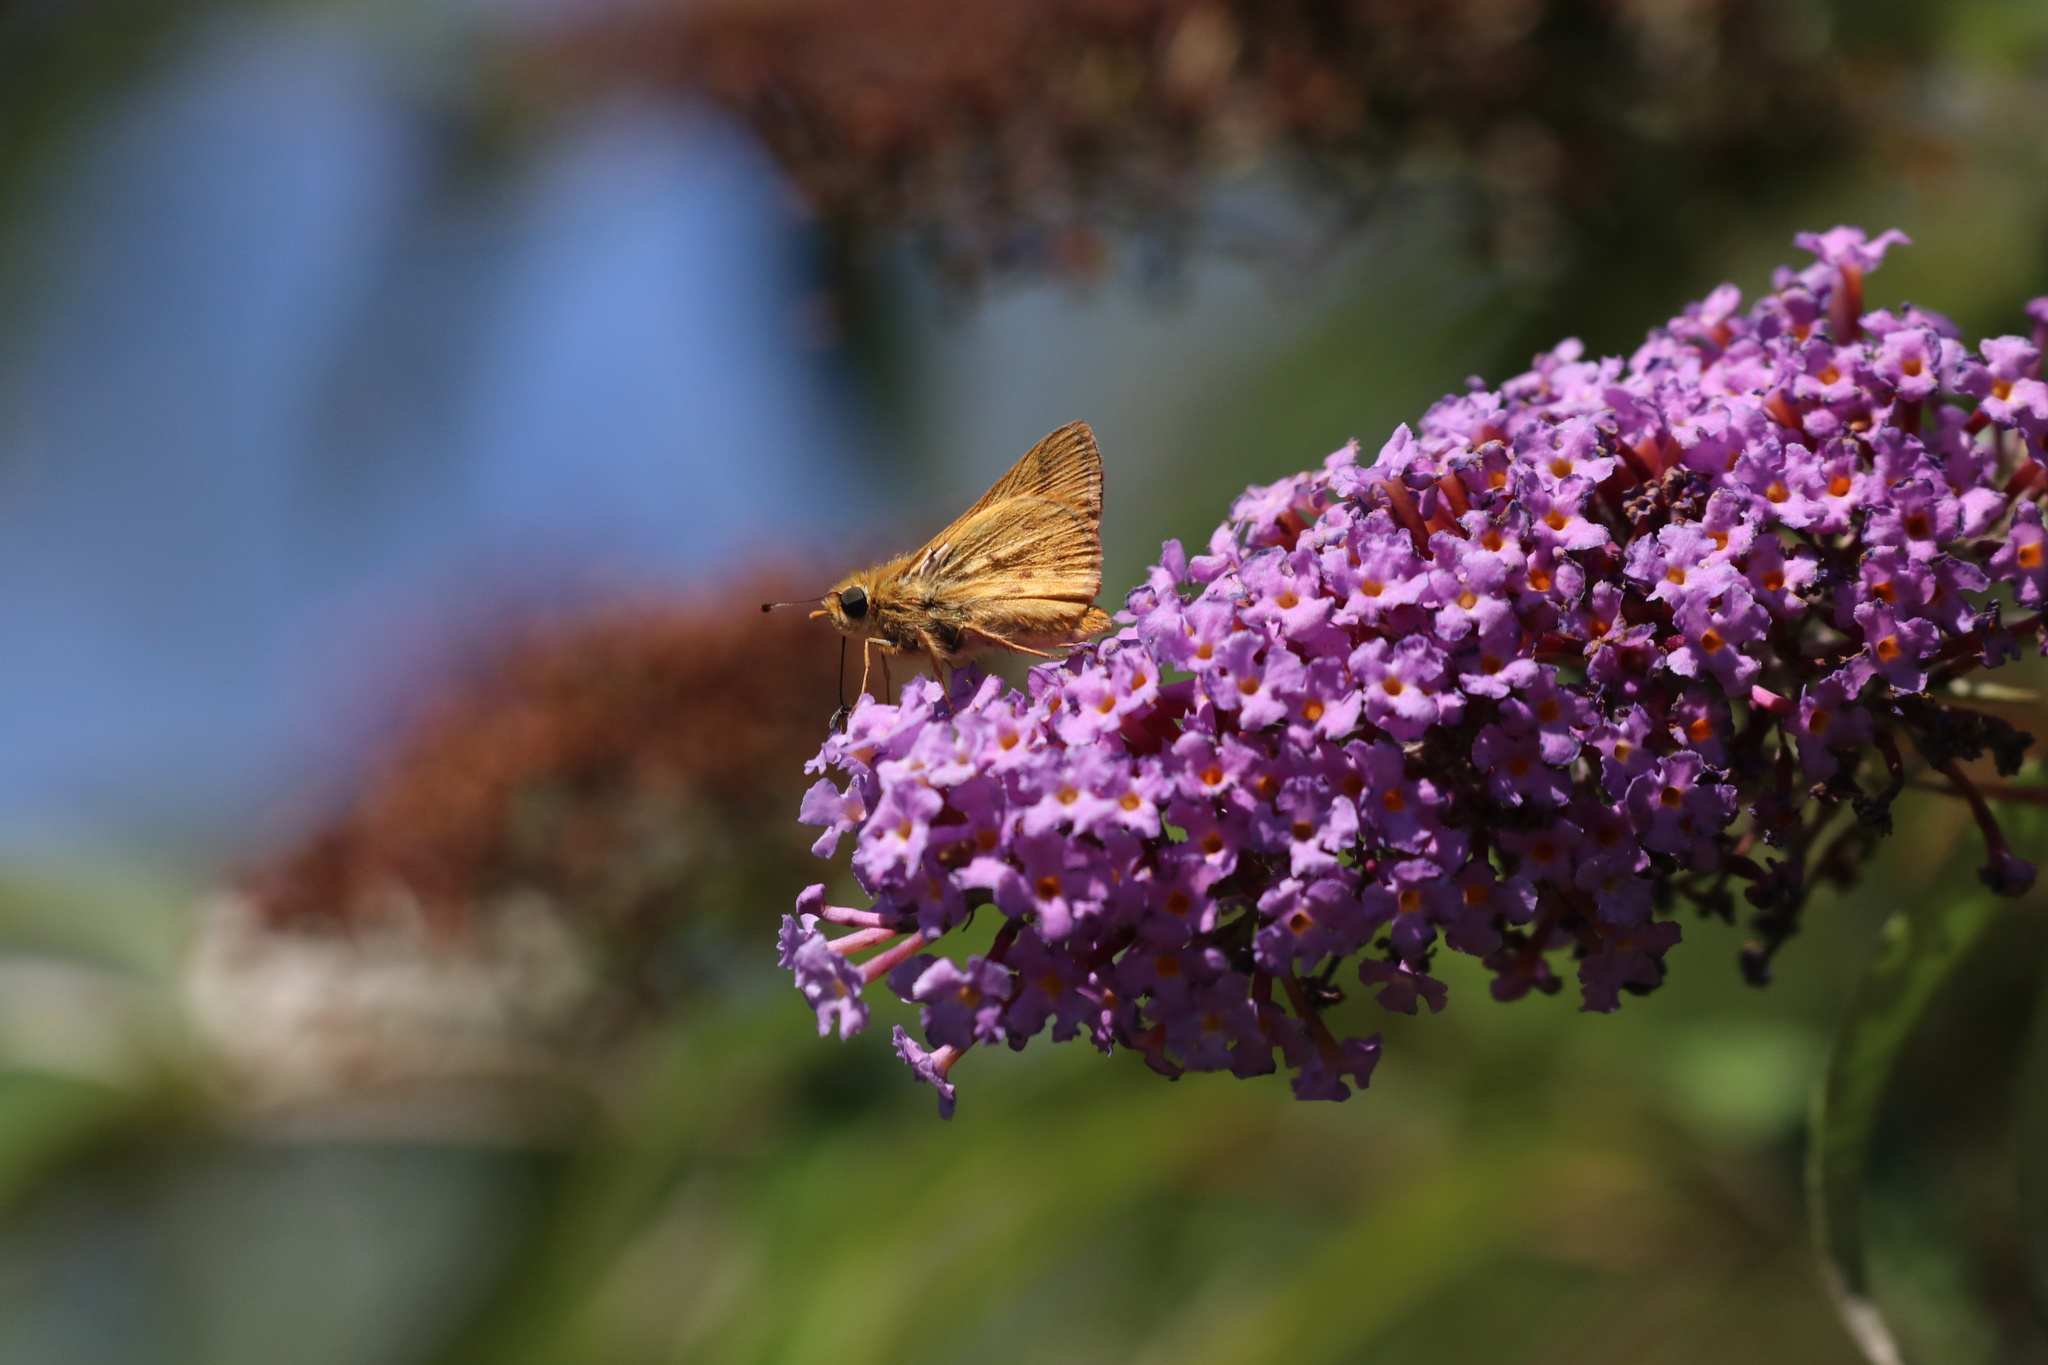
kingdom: Animalia
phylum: Arthropoda
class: Insecta
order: Lepidoptera
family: Hesperiidae
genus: Hylephila
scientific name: Hylephila signata
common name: Signata skipper
